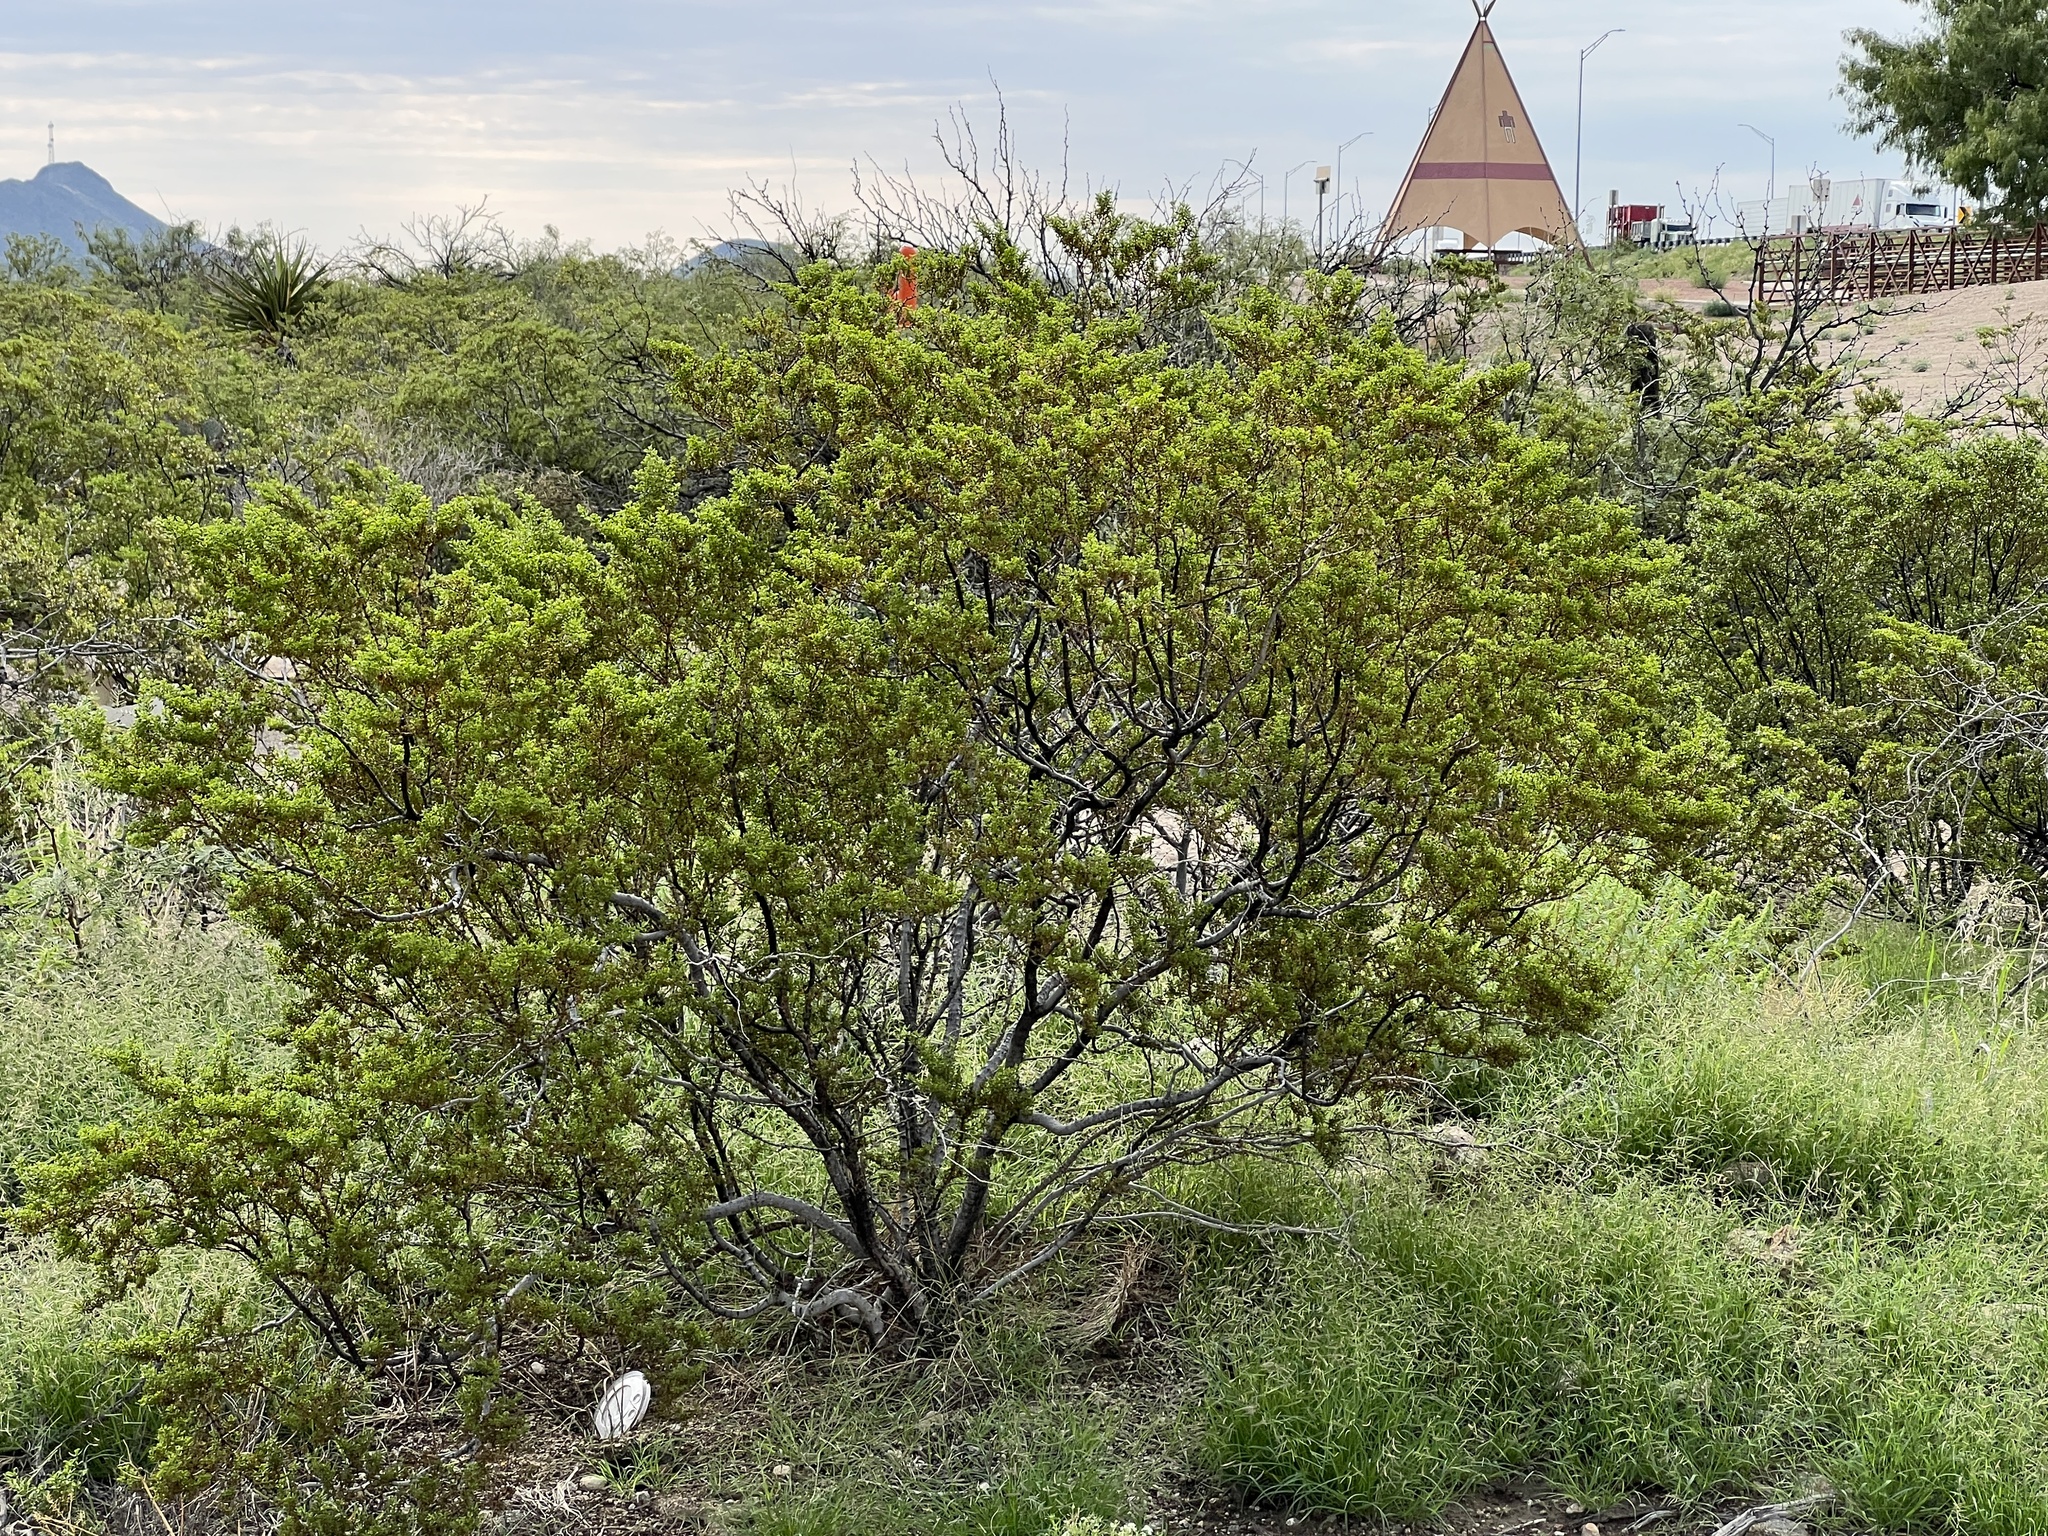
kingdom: Plantae
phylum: Tracheophyta
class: Magnoliopsida
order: Zygophyllales
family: Zygophyllaceae
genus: Larrea
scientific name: Larrea tridentata
